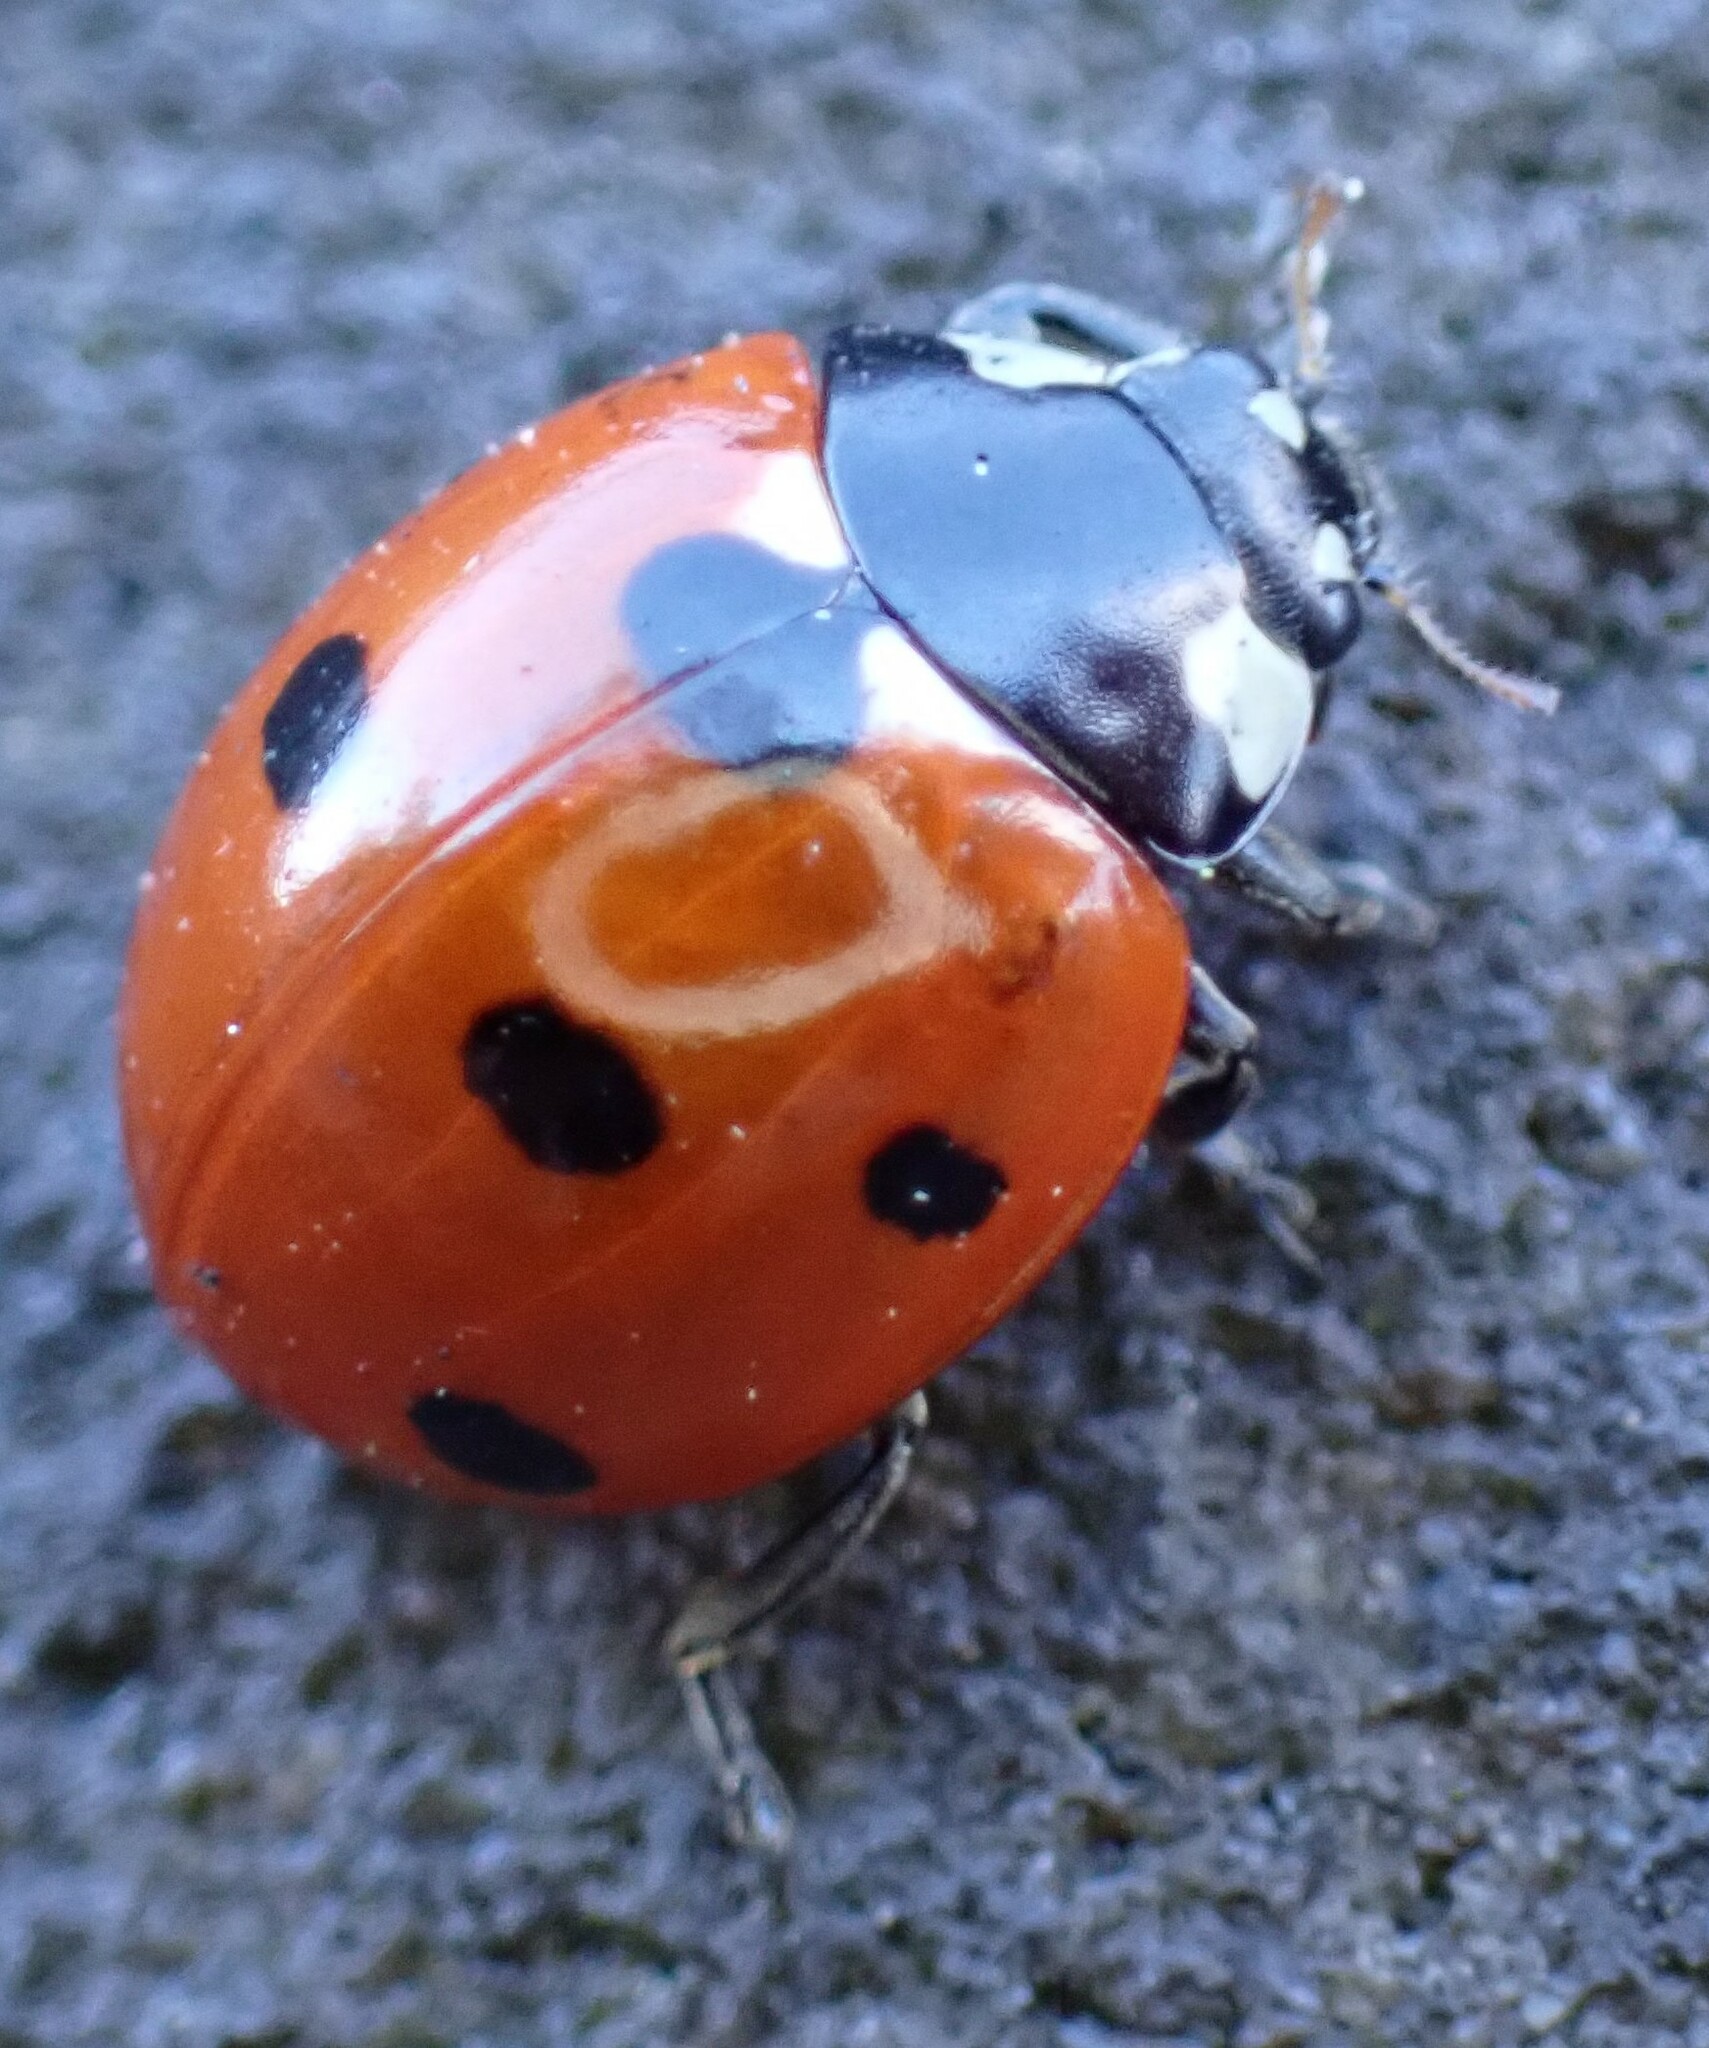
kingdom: Animalia
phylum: Arthropoda
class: Insecta
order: Coleoptera
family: Coccinellidae
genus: Coccinella
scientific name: Coccinella septempunctata
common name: Sevenspotted lady beetle
